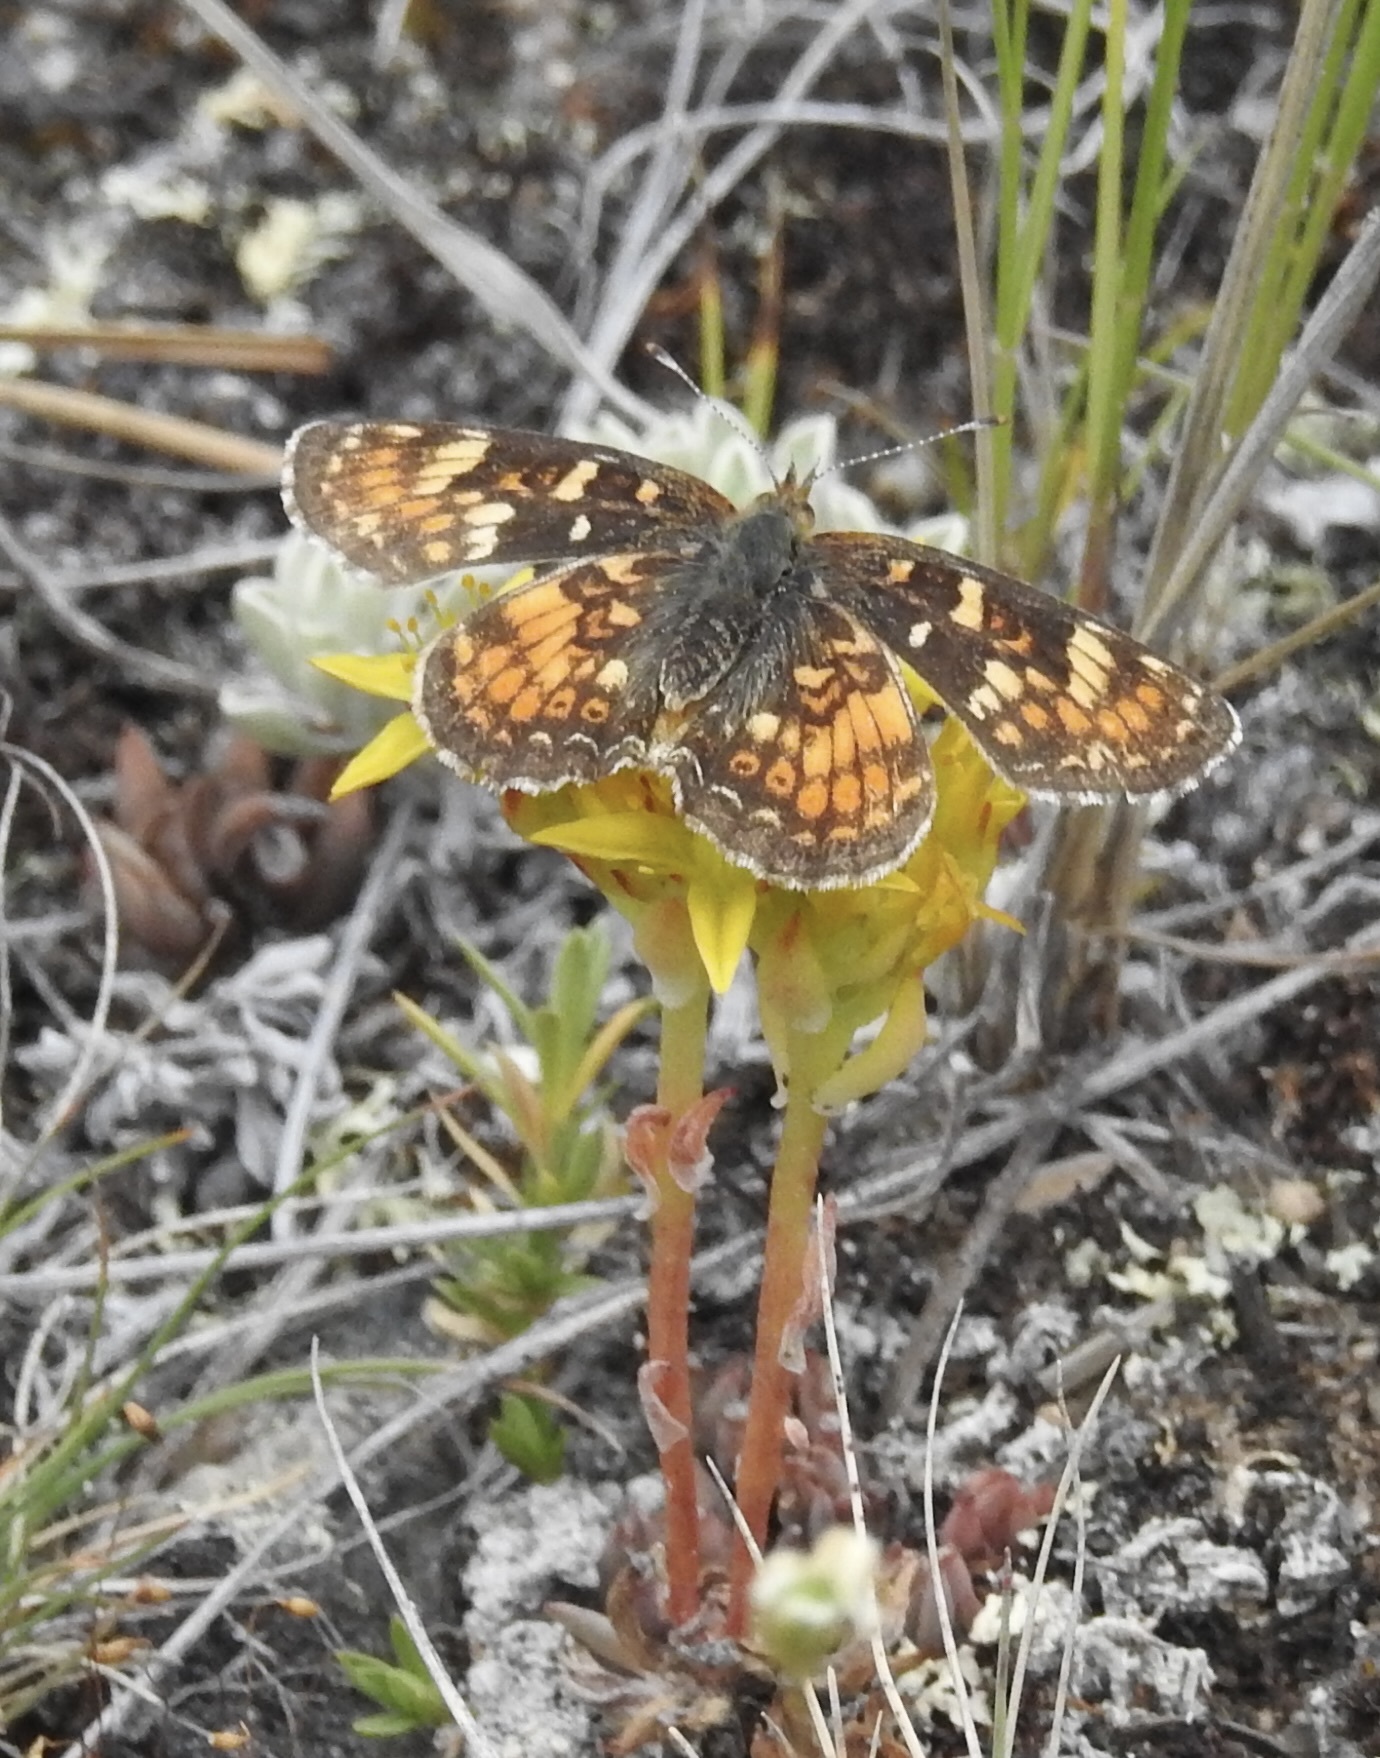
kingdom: Animalia
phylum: Arthropoda
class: Insecta
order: Lepidoptera
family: Nymphalidae
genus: Phyciodes
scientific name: Phyciodes tharos
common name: Pearl crescent
